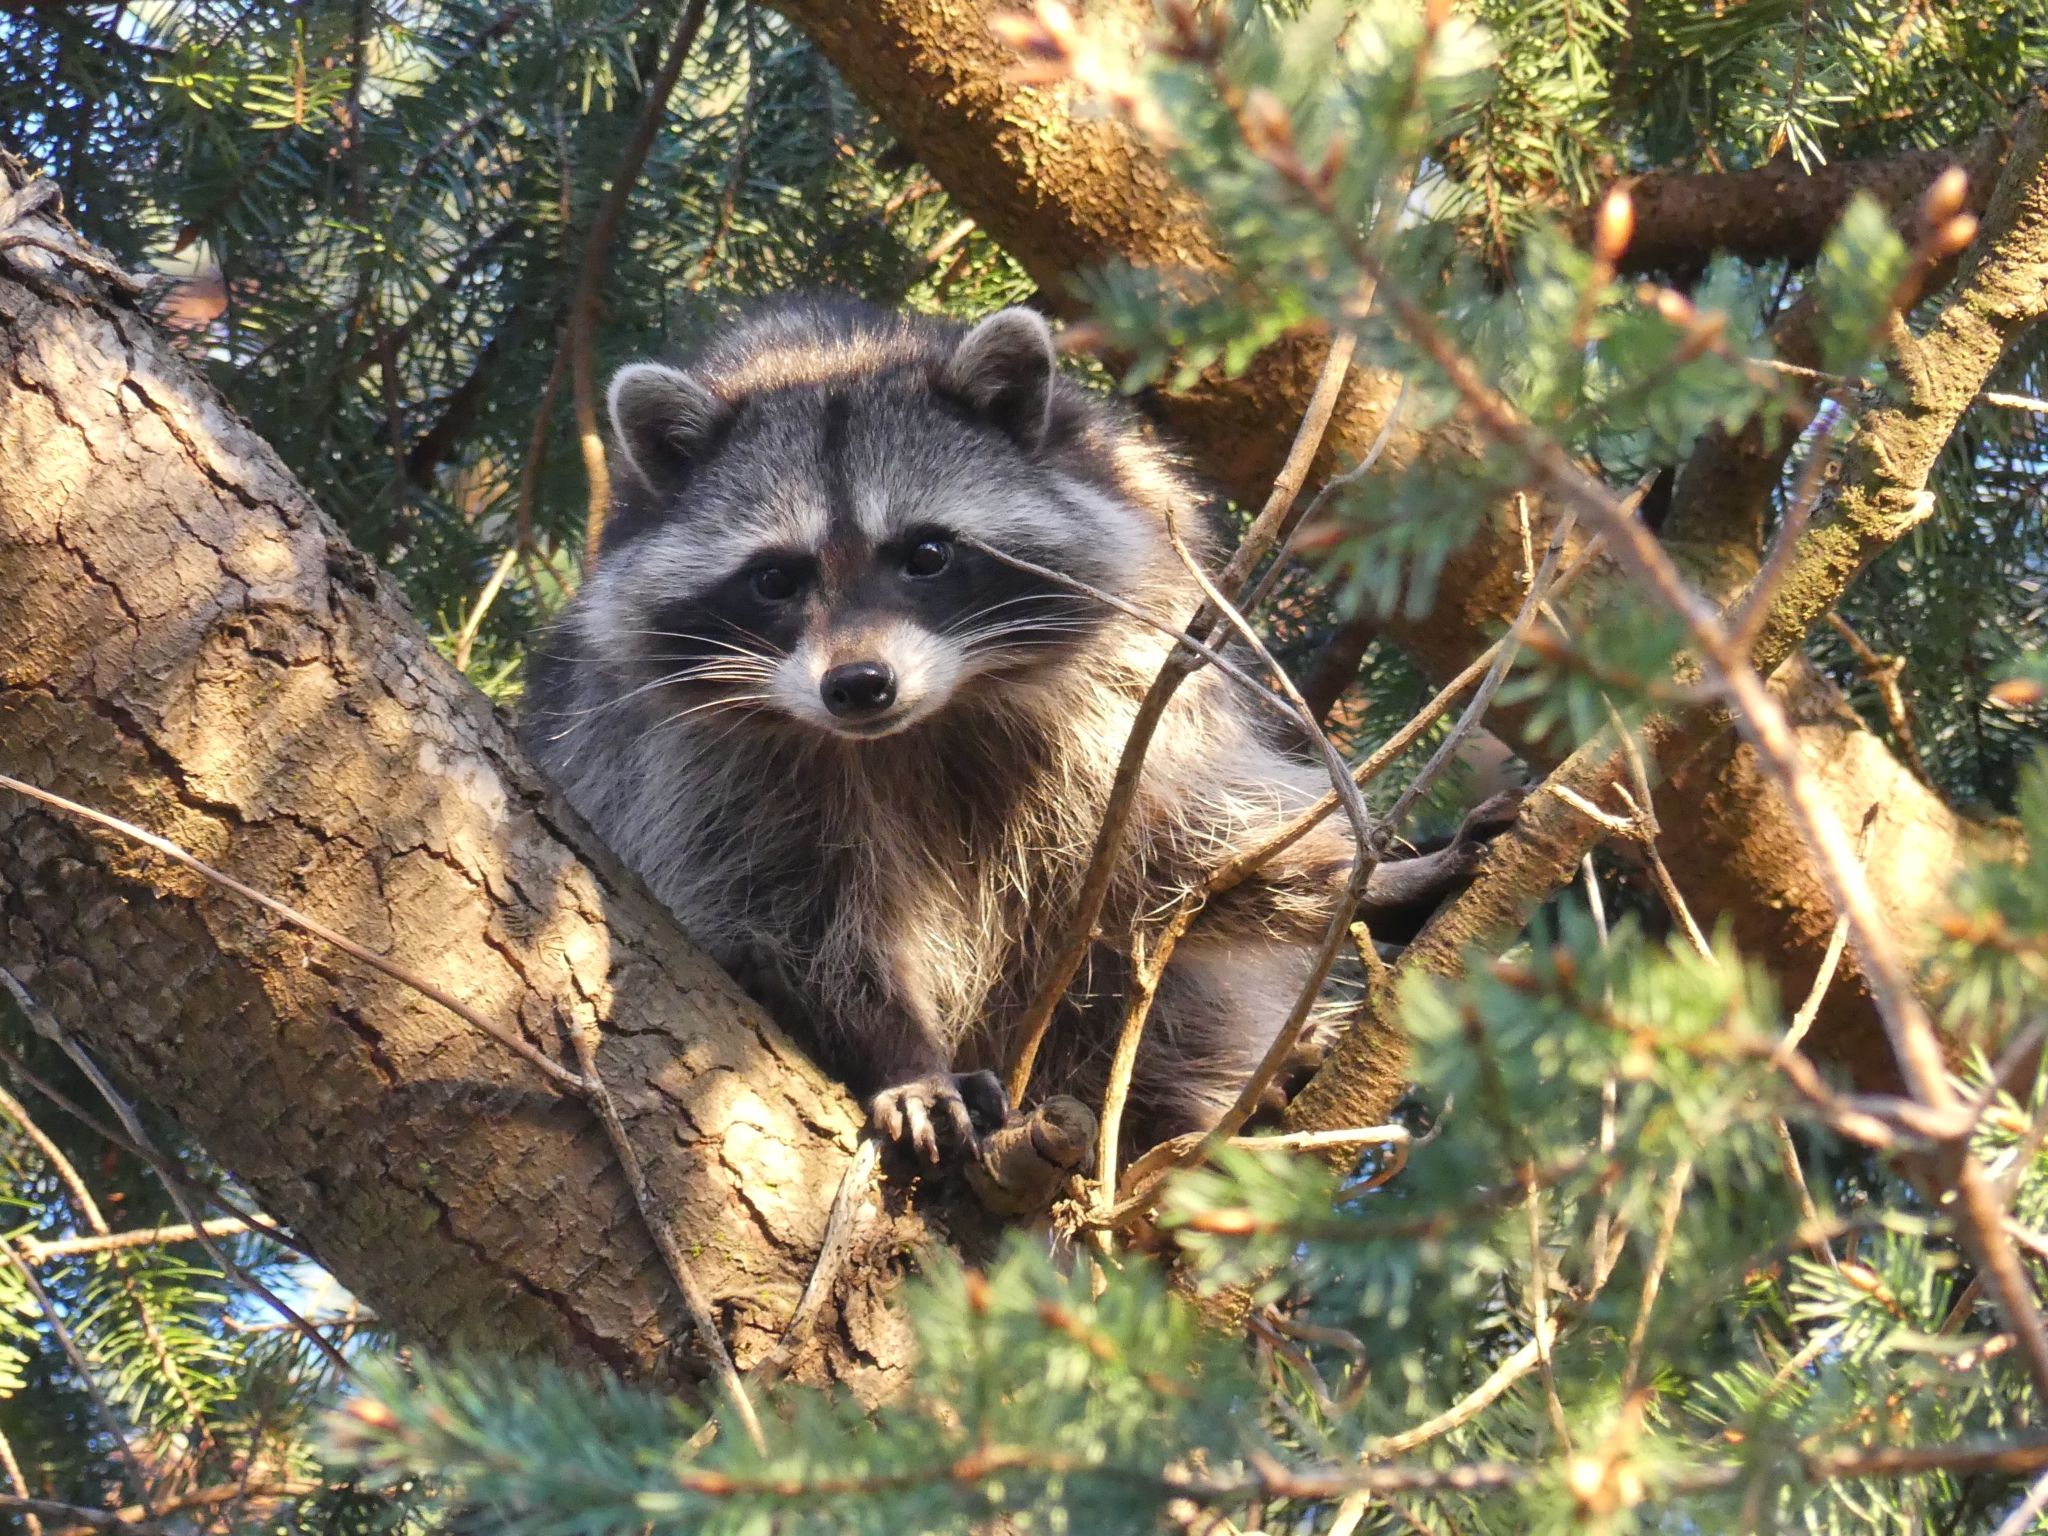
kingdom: Animalia
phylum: Chordata
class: Mammalia
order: Carnivora
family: Procyonidae
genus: Procyon
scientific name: Procyon lotor
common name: Raccoon
